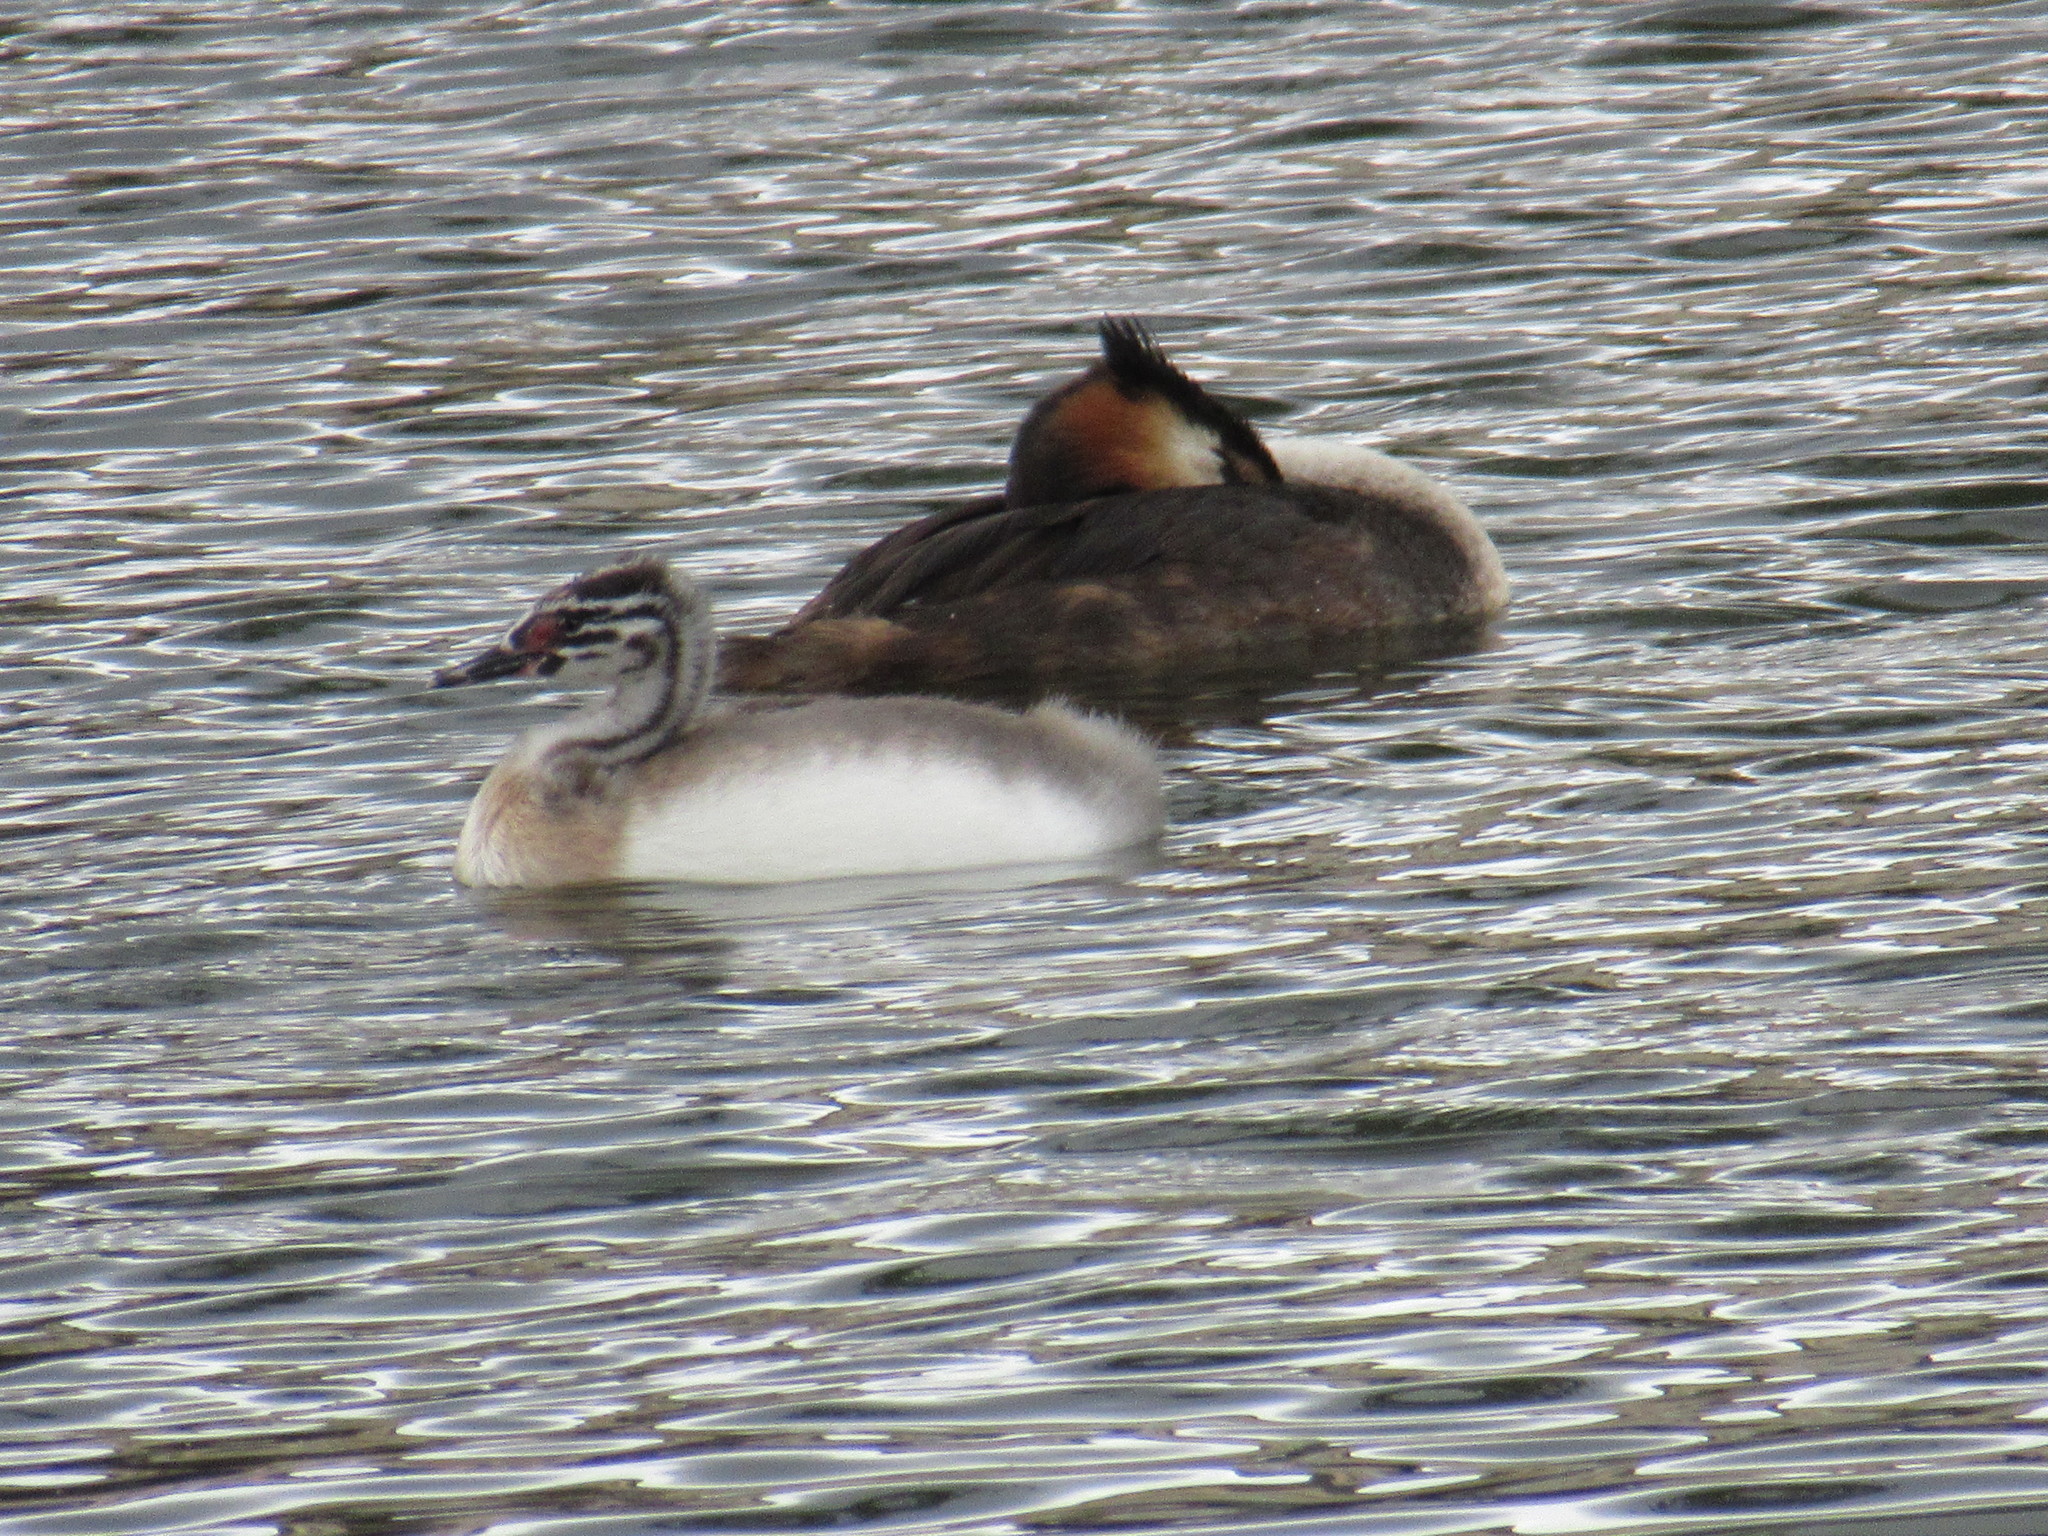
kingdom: Animalia
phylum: Chordata
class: Aves
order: Podicipediformes
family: Podicipedidae
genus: Podiceps
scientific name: Podiceps cristatus
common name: Great crested grebe
